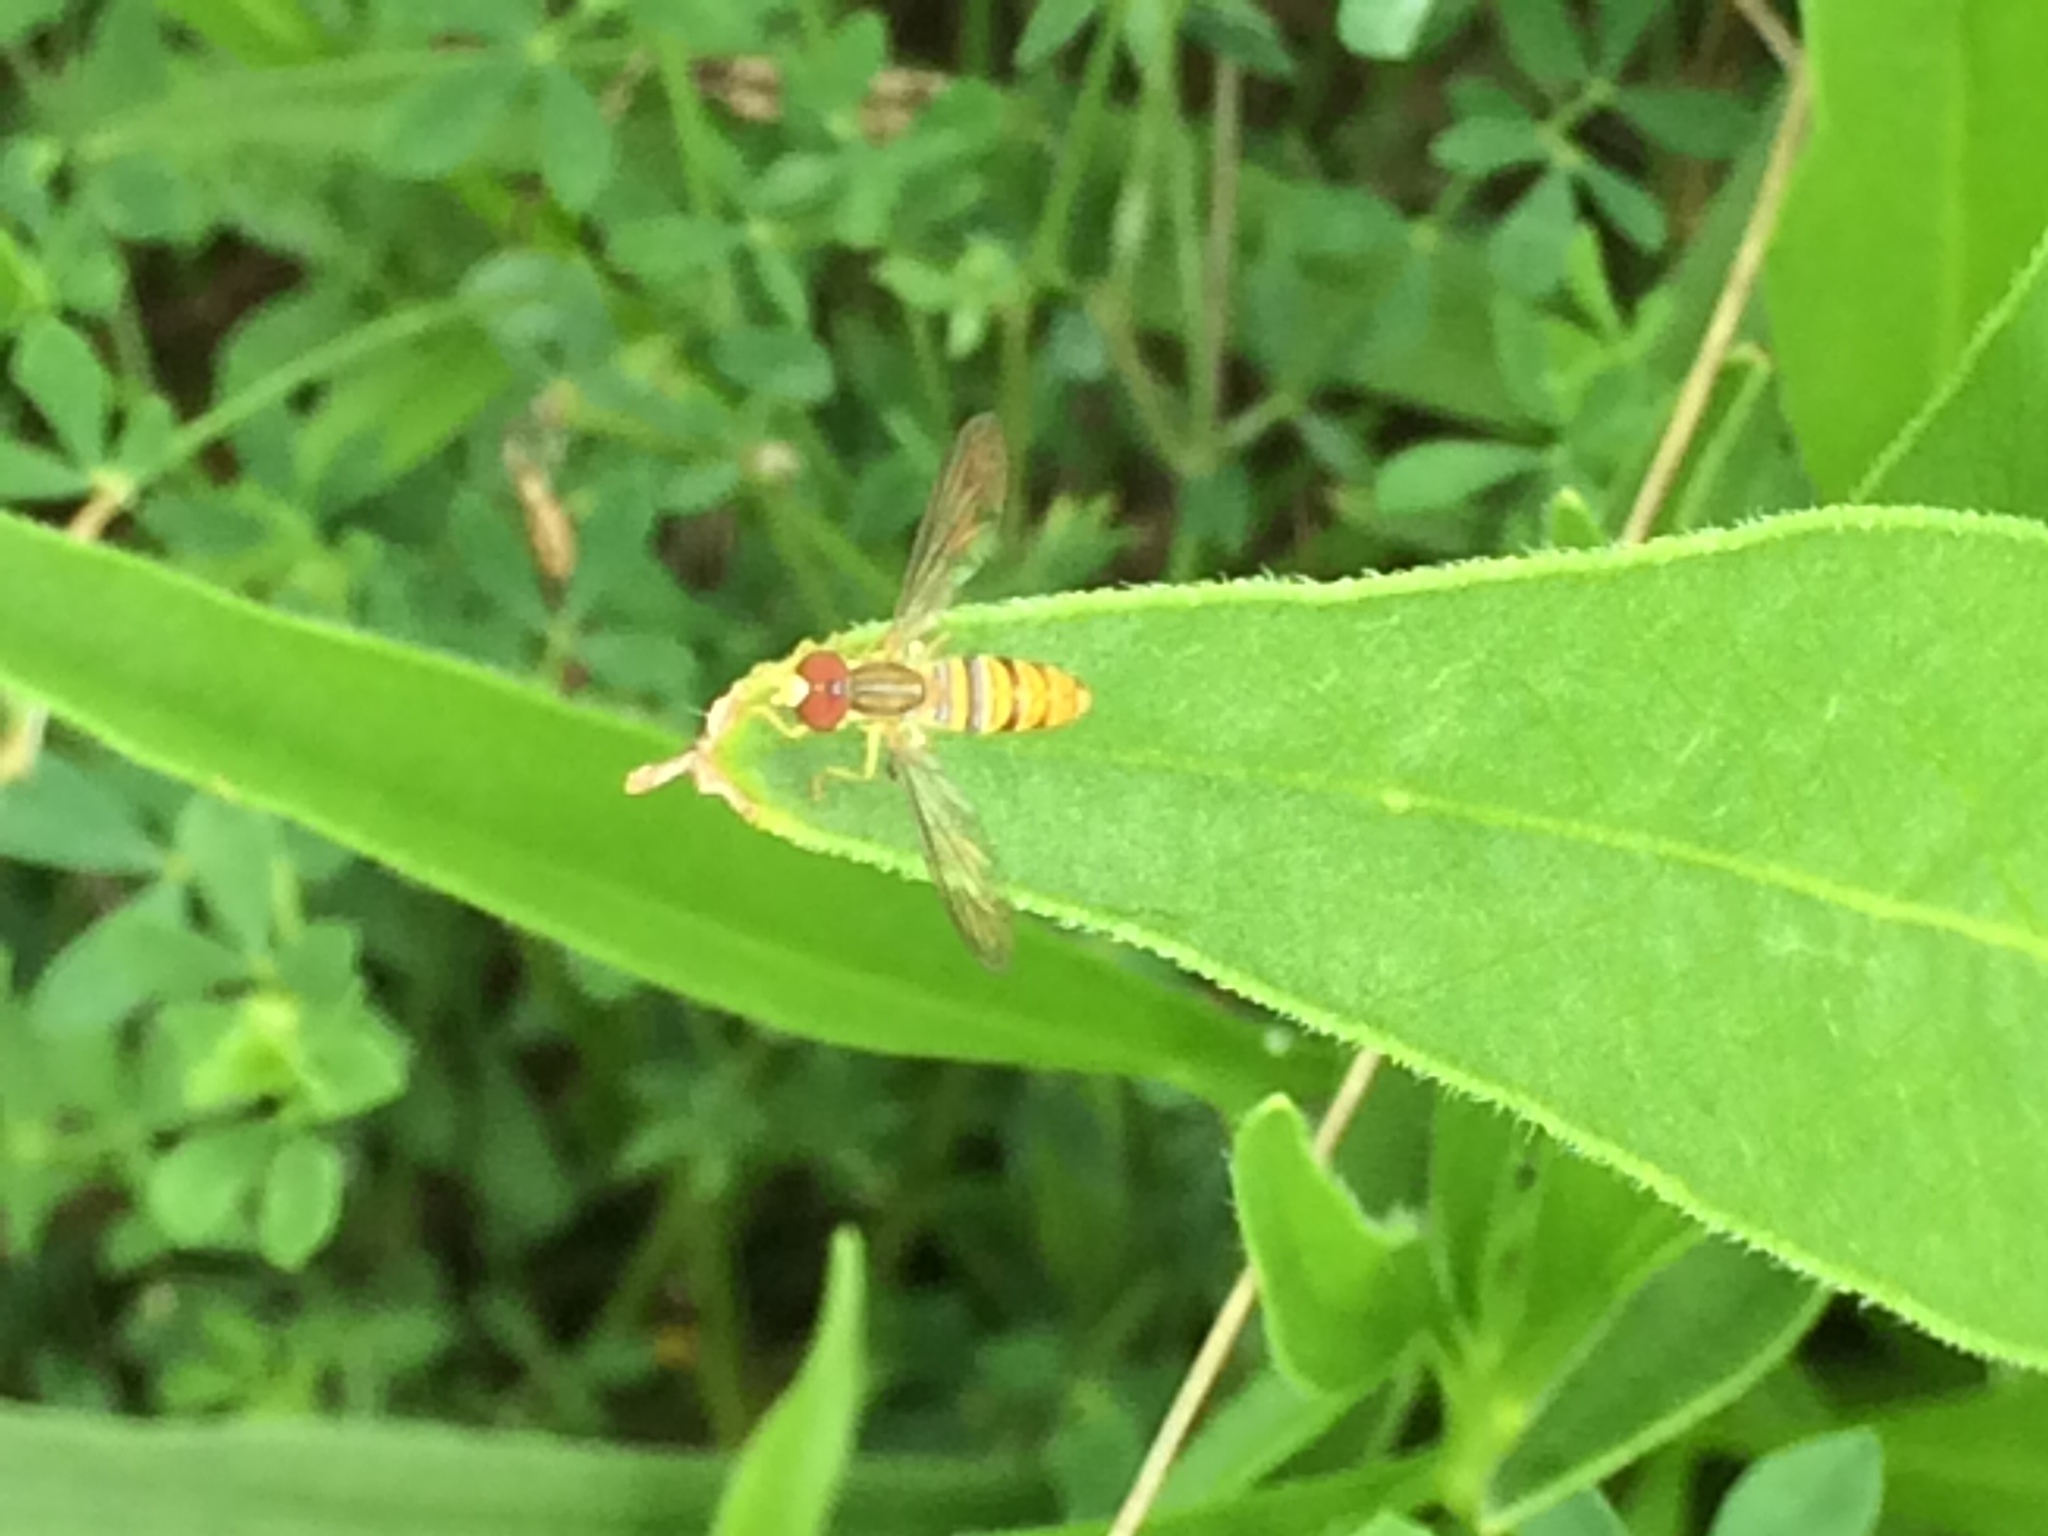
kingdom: Animalia
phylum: Arthropoda
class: Insecta
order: Diptera
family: Syrphidae
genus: Toxomerus
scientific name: Toxomerus politus
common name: Maize calligrapher
